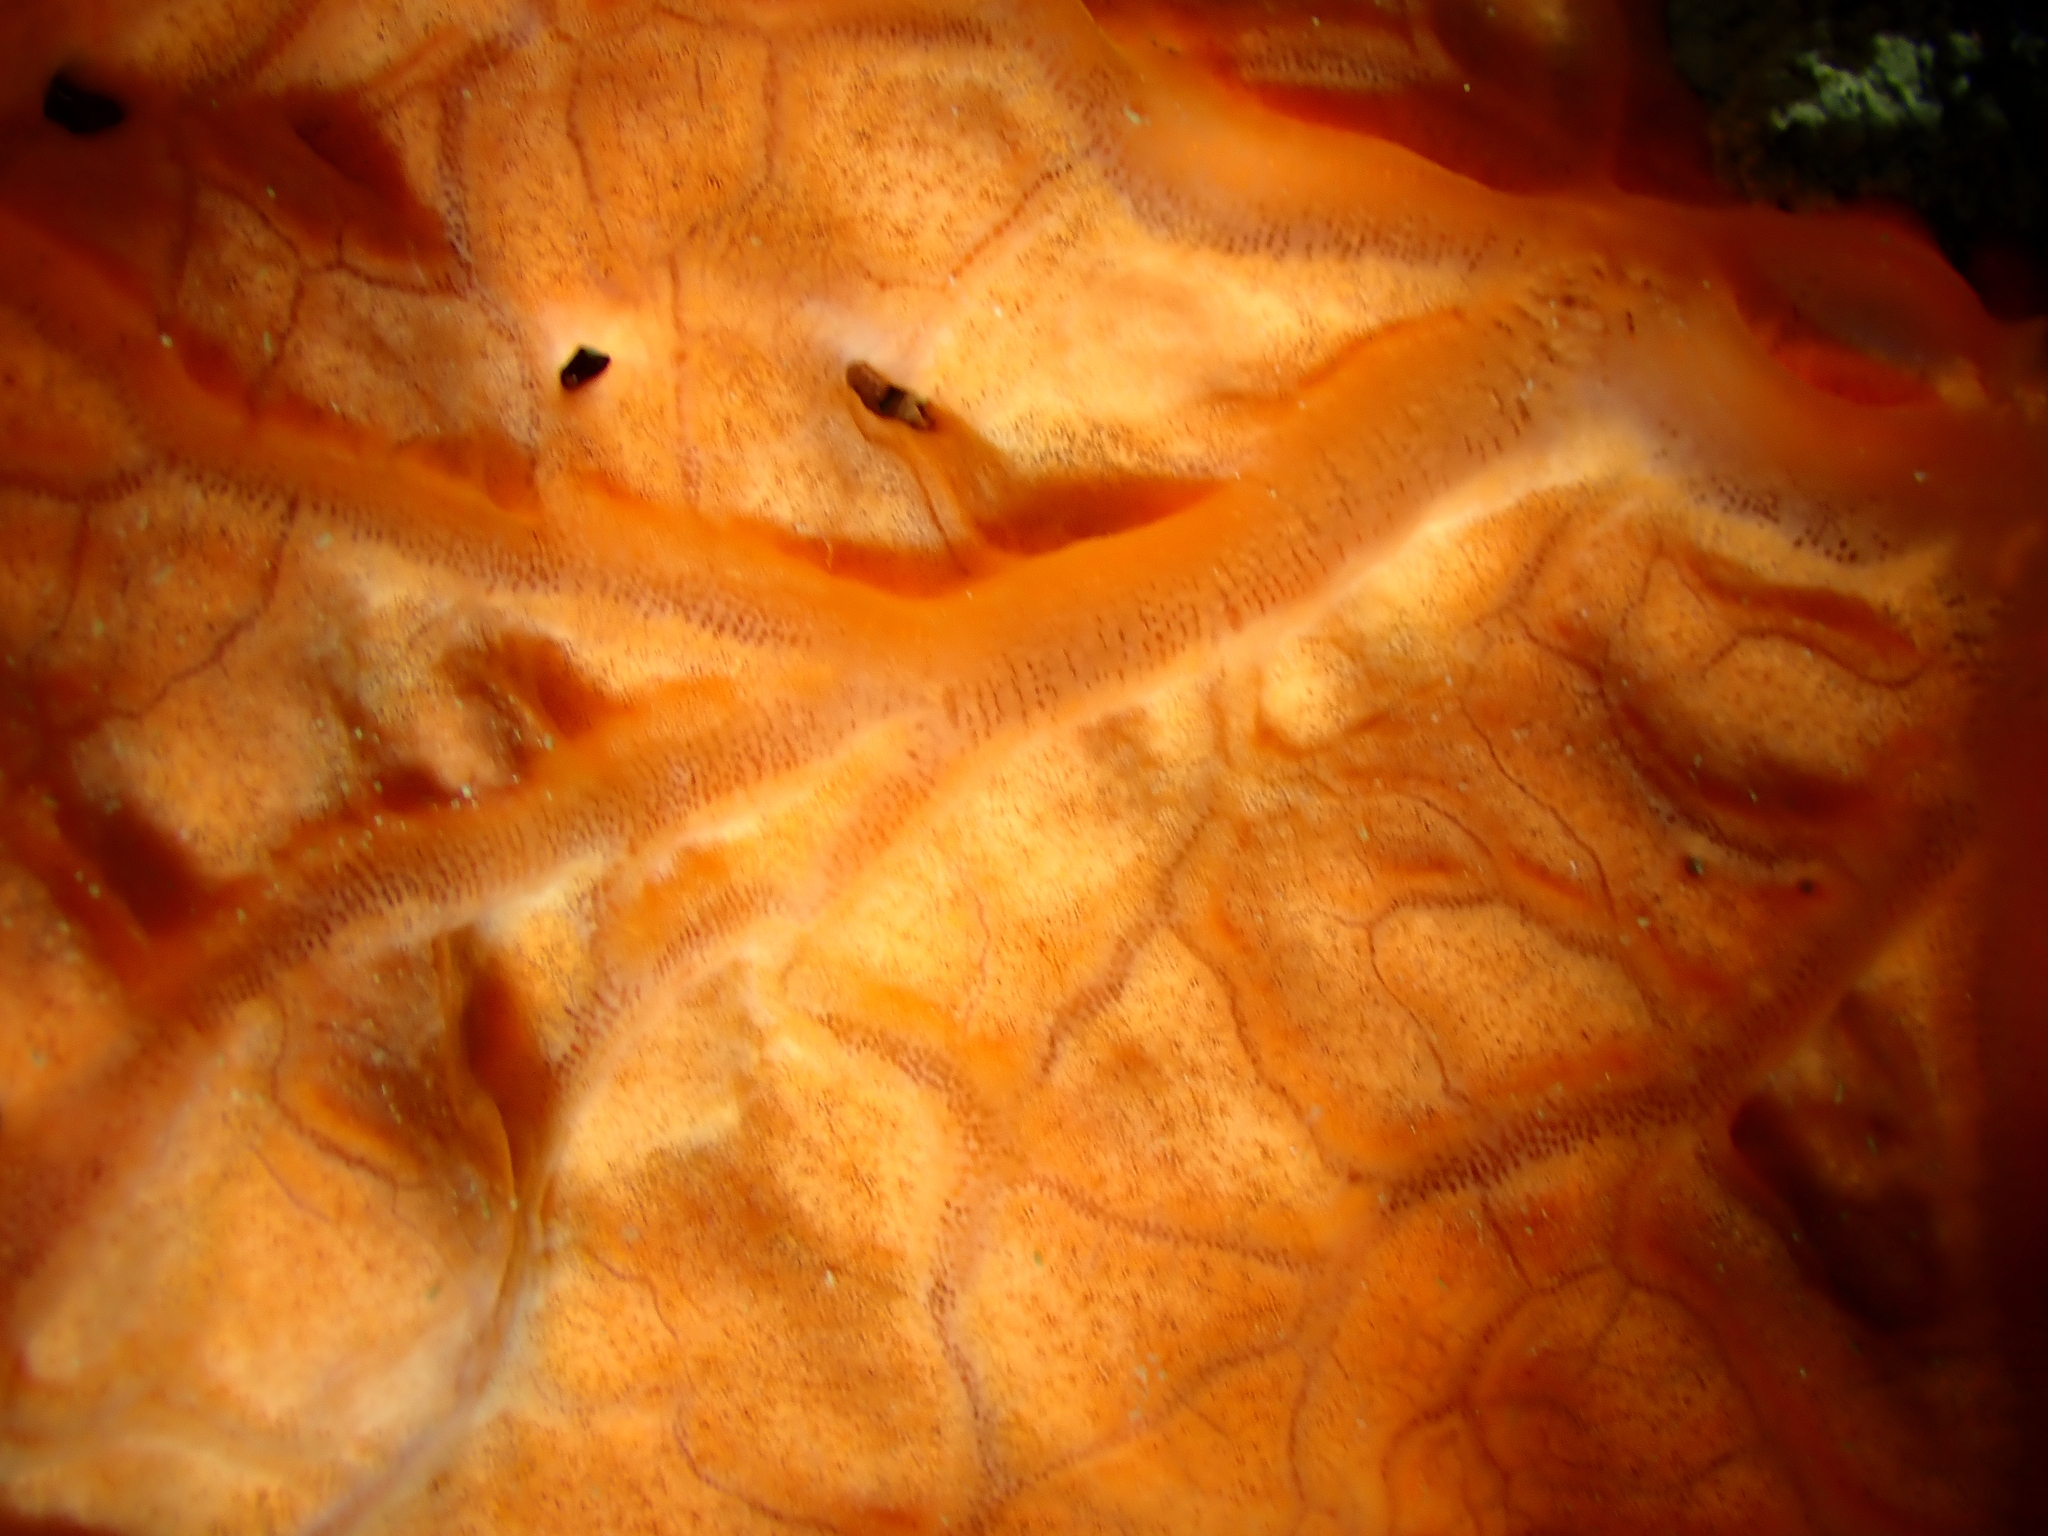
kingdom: Animalia
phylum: Porifera
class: Demospongiae
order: Clionaida
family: Spirastrellidae
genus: Spirastrella
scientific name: Spirastrella cunctatrix
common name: Encrusting orange sponge
